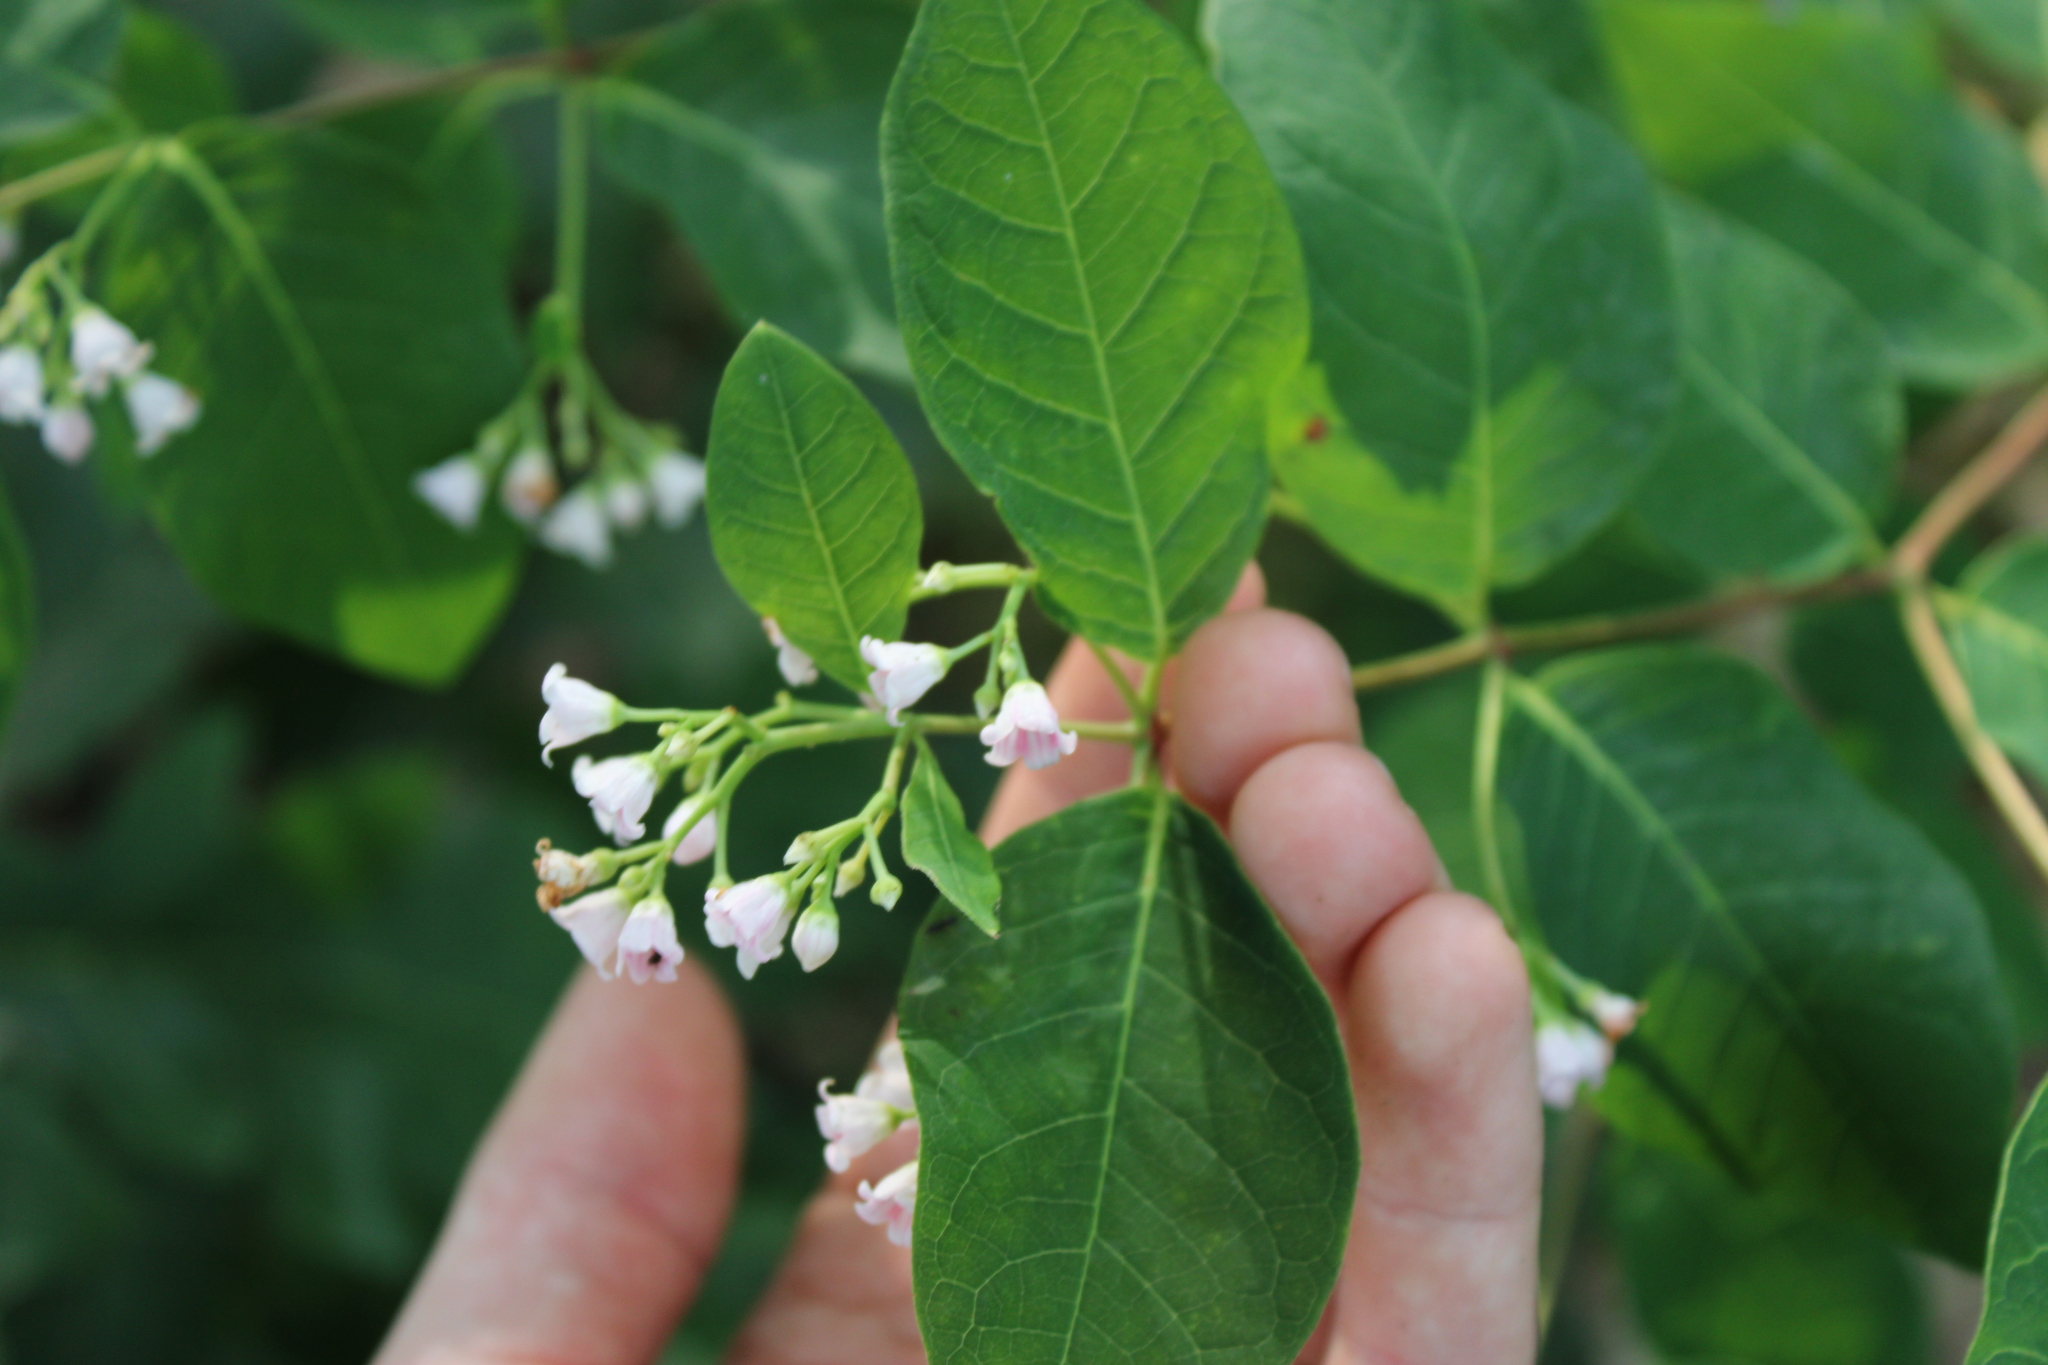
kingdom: Plantae
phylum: Tracheophyta
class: Magnoliopsida
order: Gentianales
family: Apocynaceae
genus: Apocynum
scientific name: Apocynum androsaemifolium
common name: Spreading dogbane
